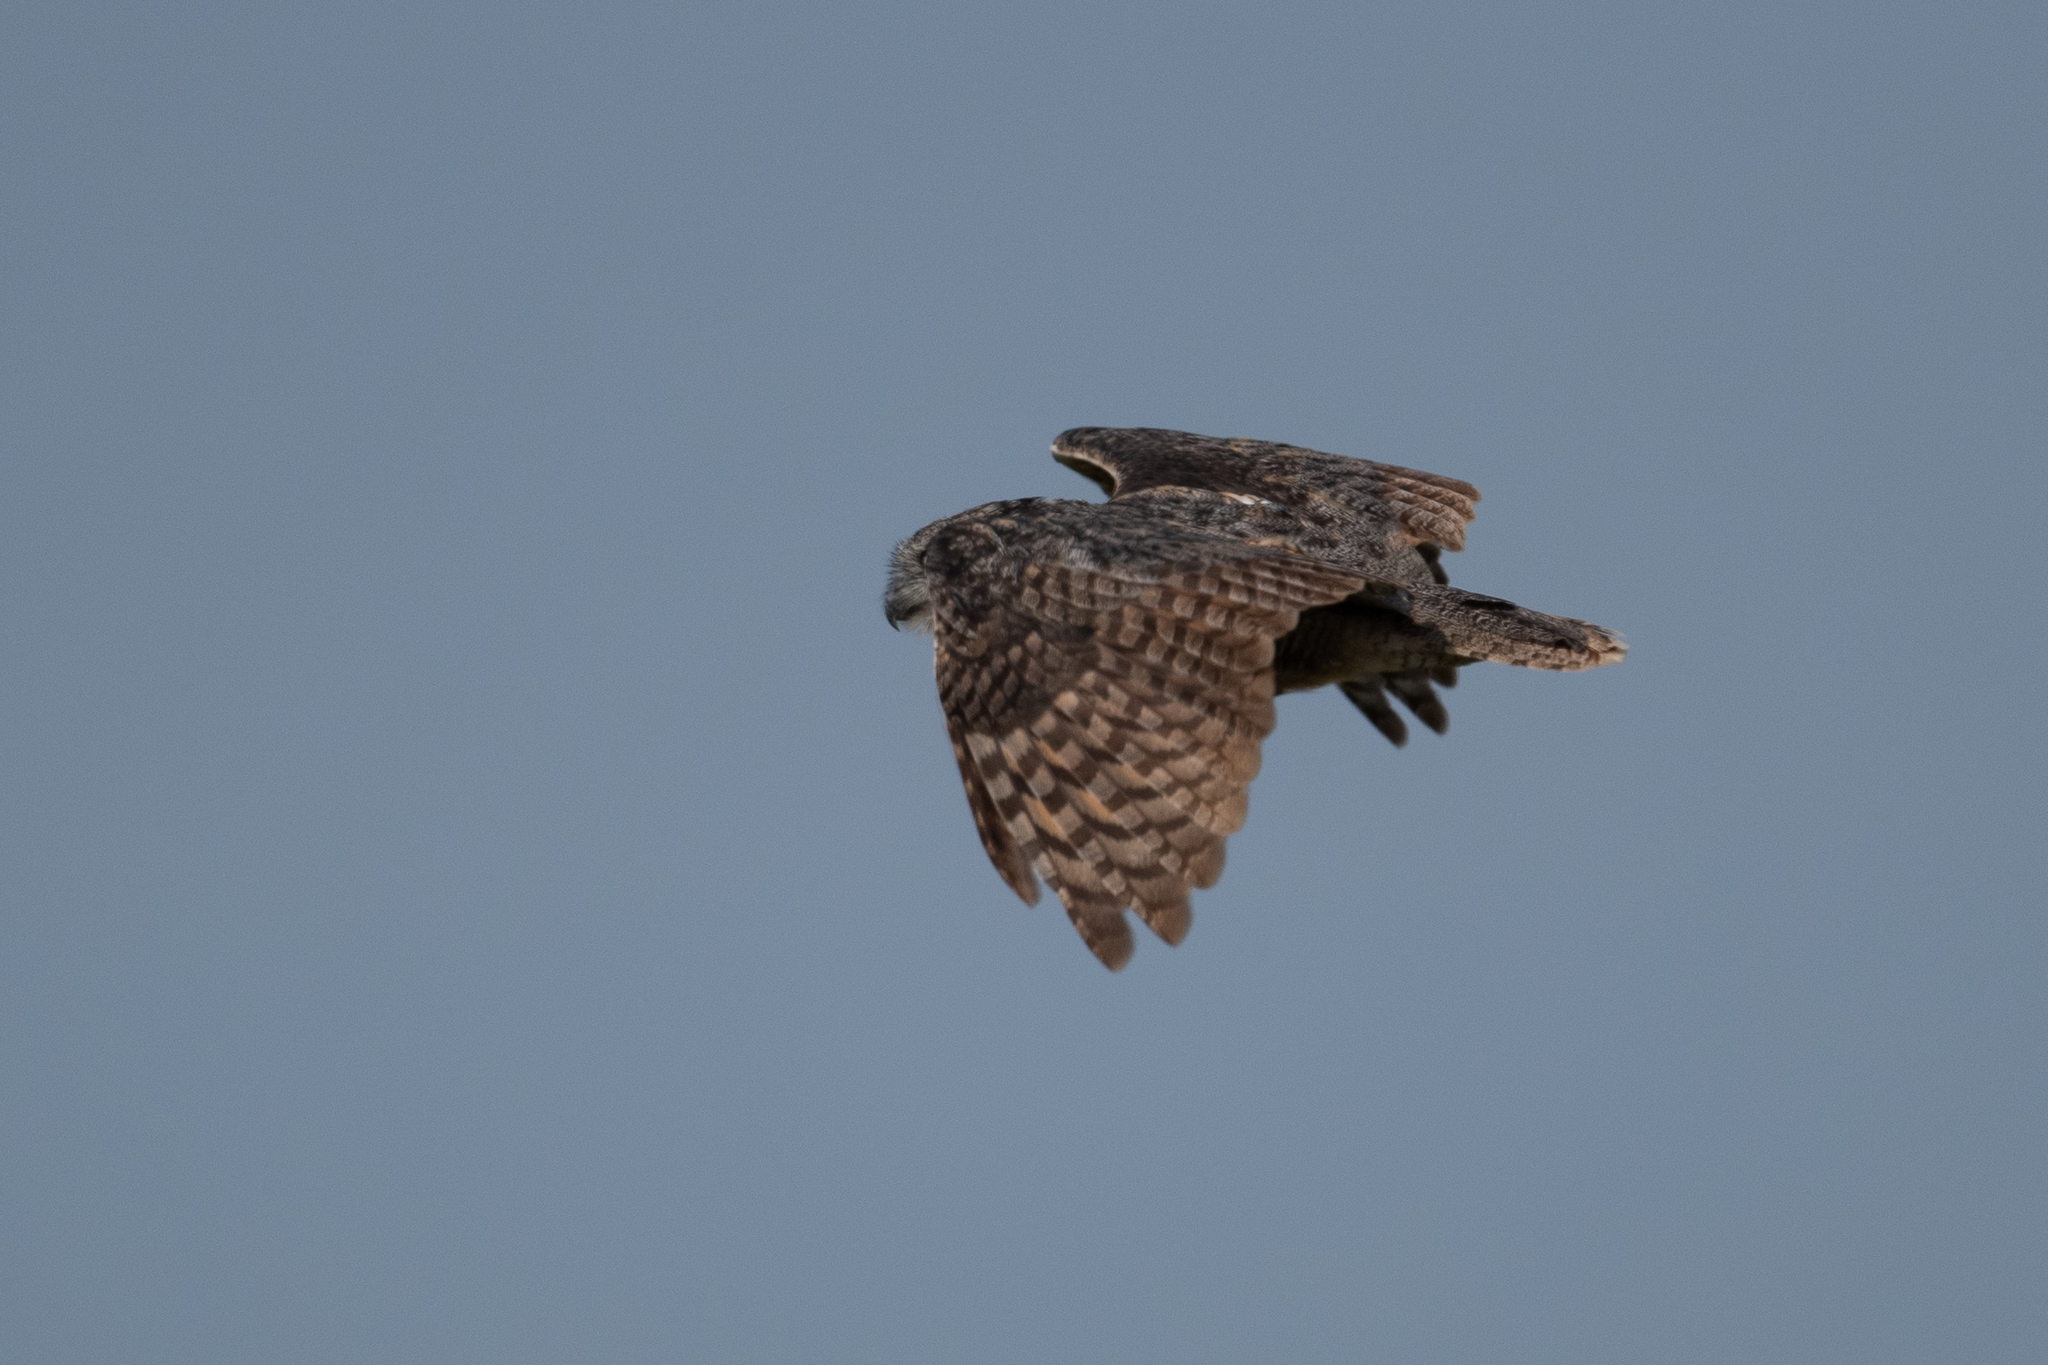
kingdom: Animalia
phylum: Chordata
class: Aves
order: Strigiformes
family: Strigidae
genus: Bubo
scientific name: Bubo virginianus
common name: Great horned owl
